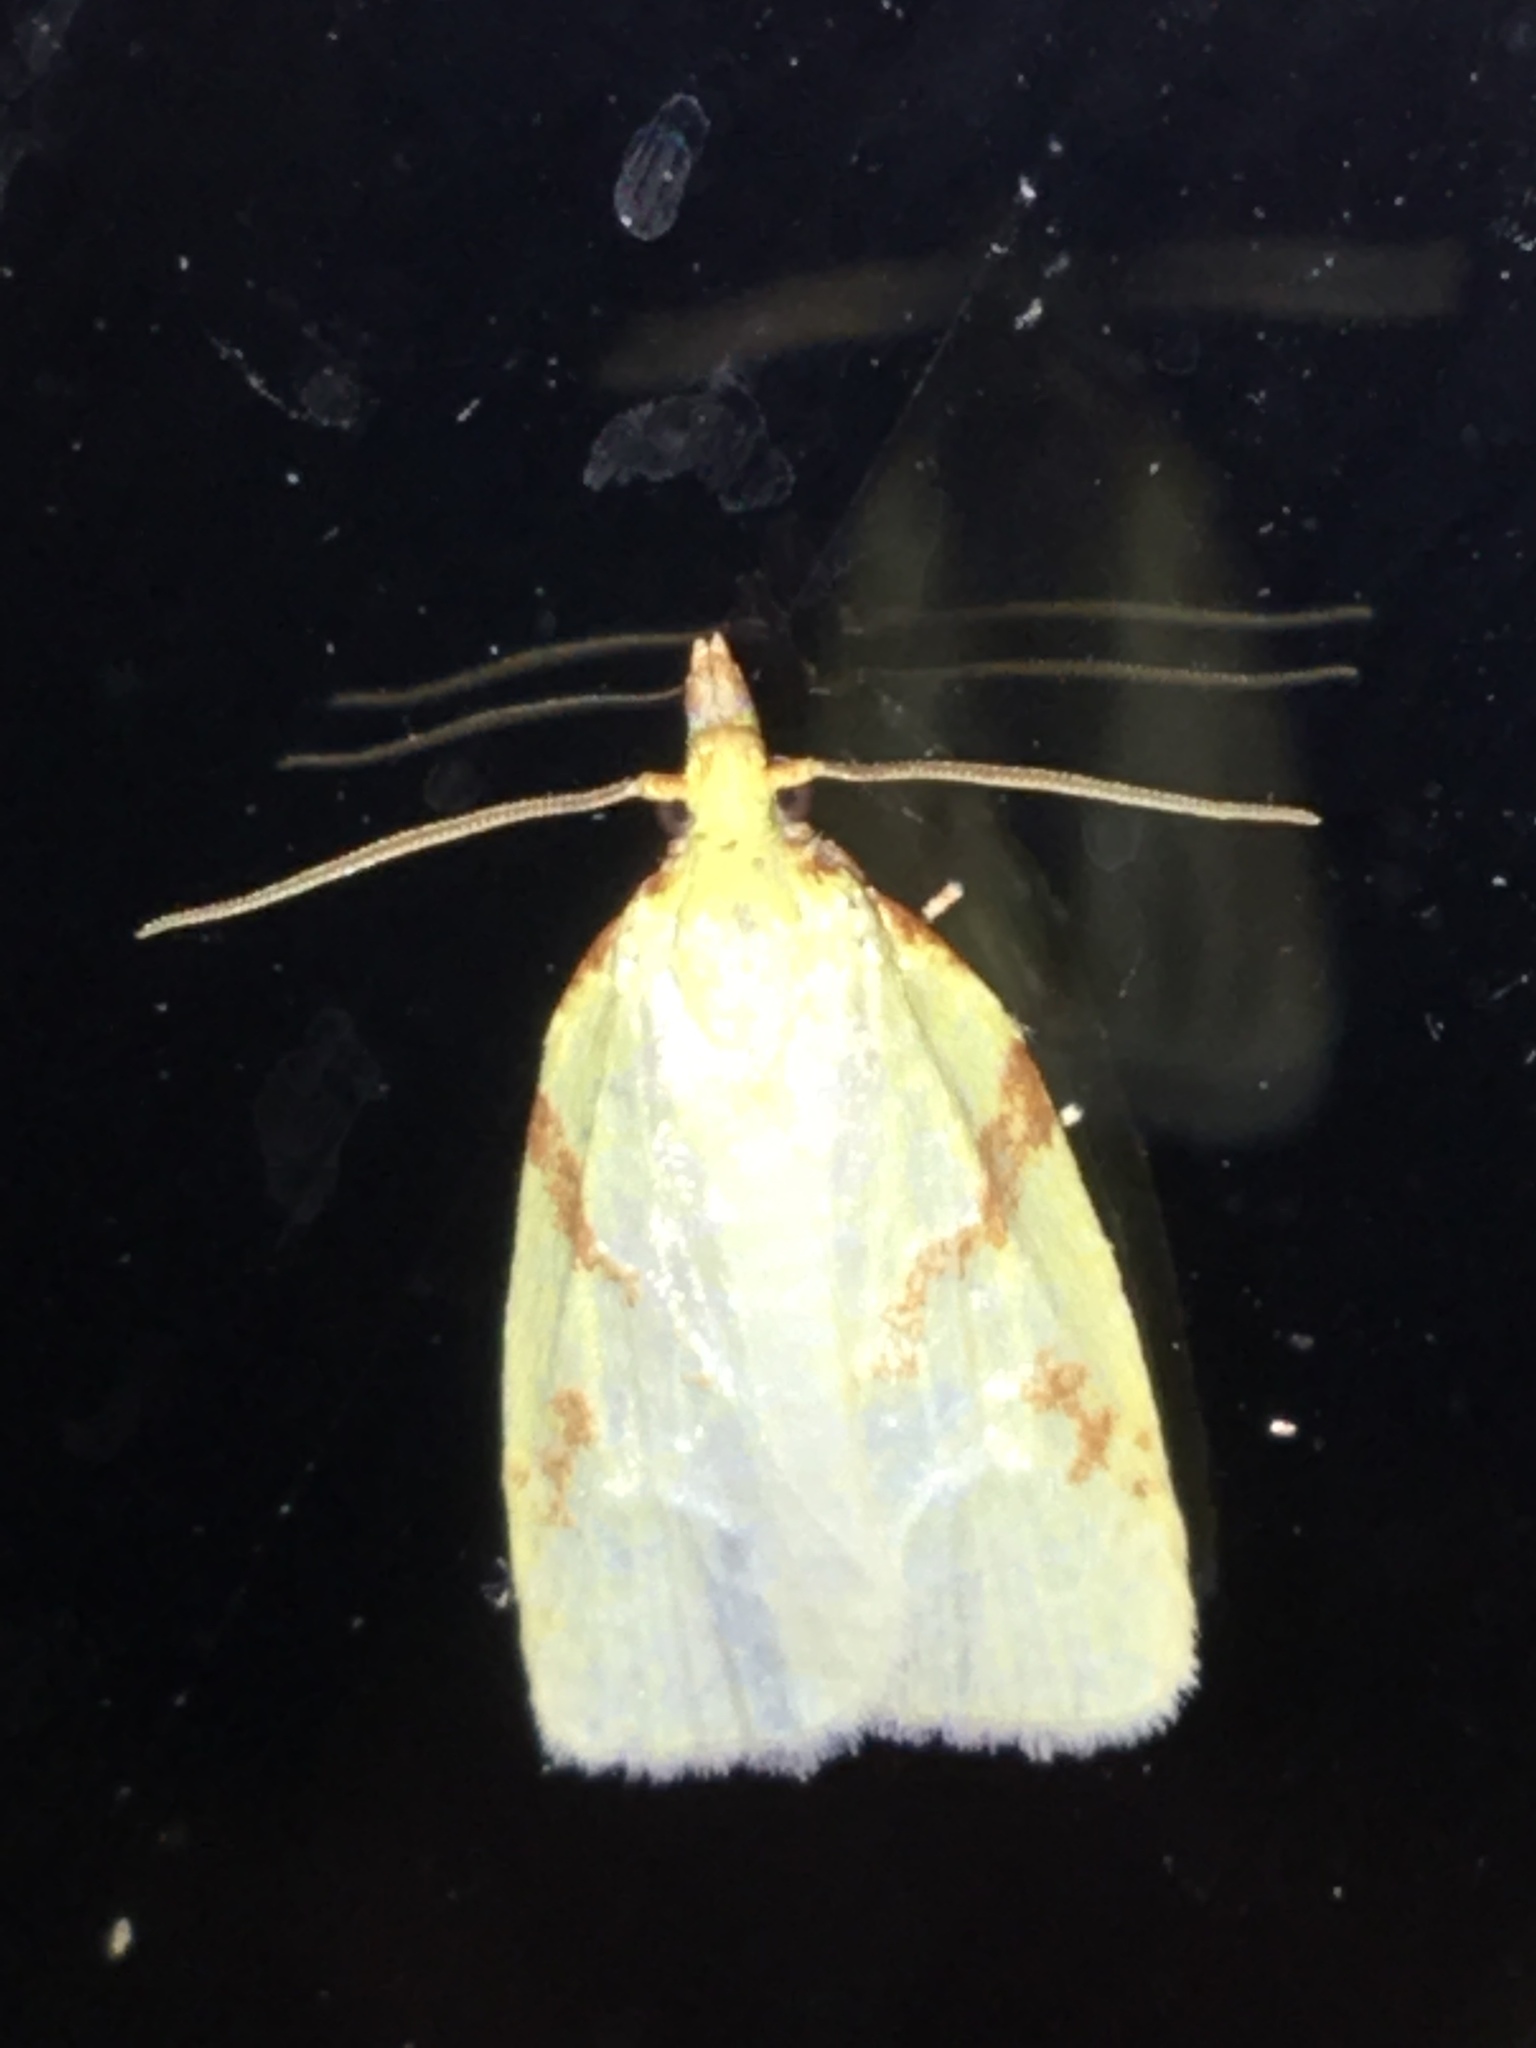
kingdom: Animalia
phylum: Arthropoda
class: Insecta
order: Lepidoptera
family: Tortricidae
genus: Cenopis
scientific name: Cenopis pettitana
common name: Maple-basswood leafroller moth
